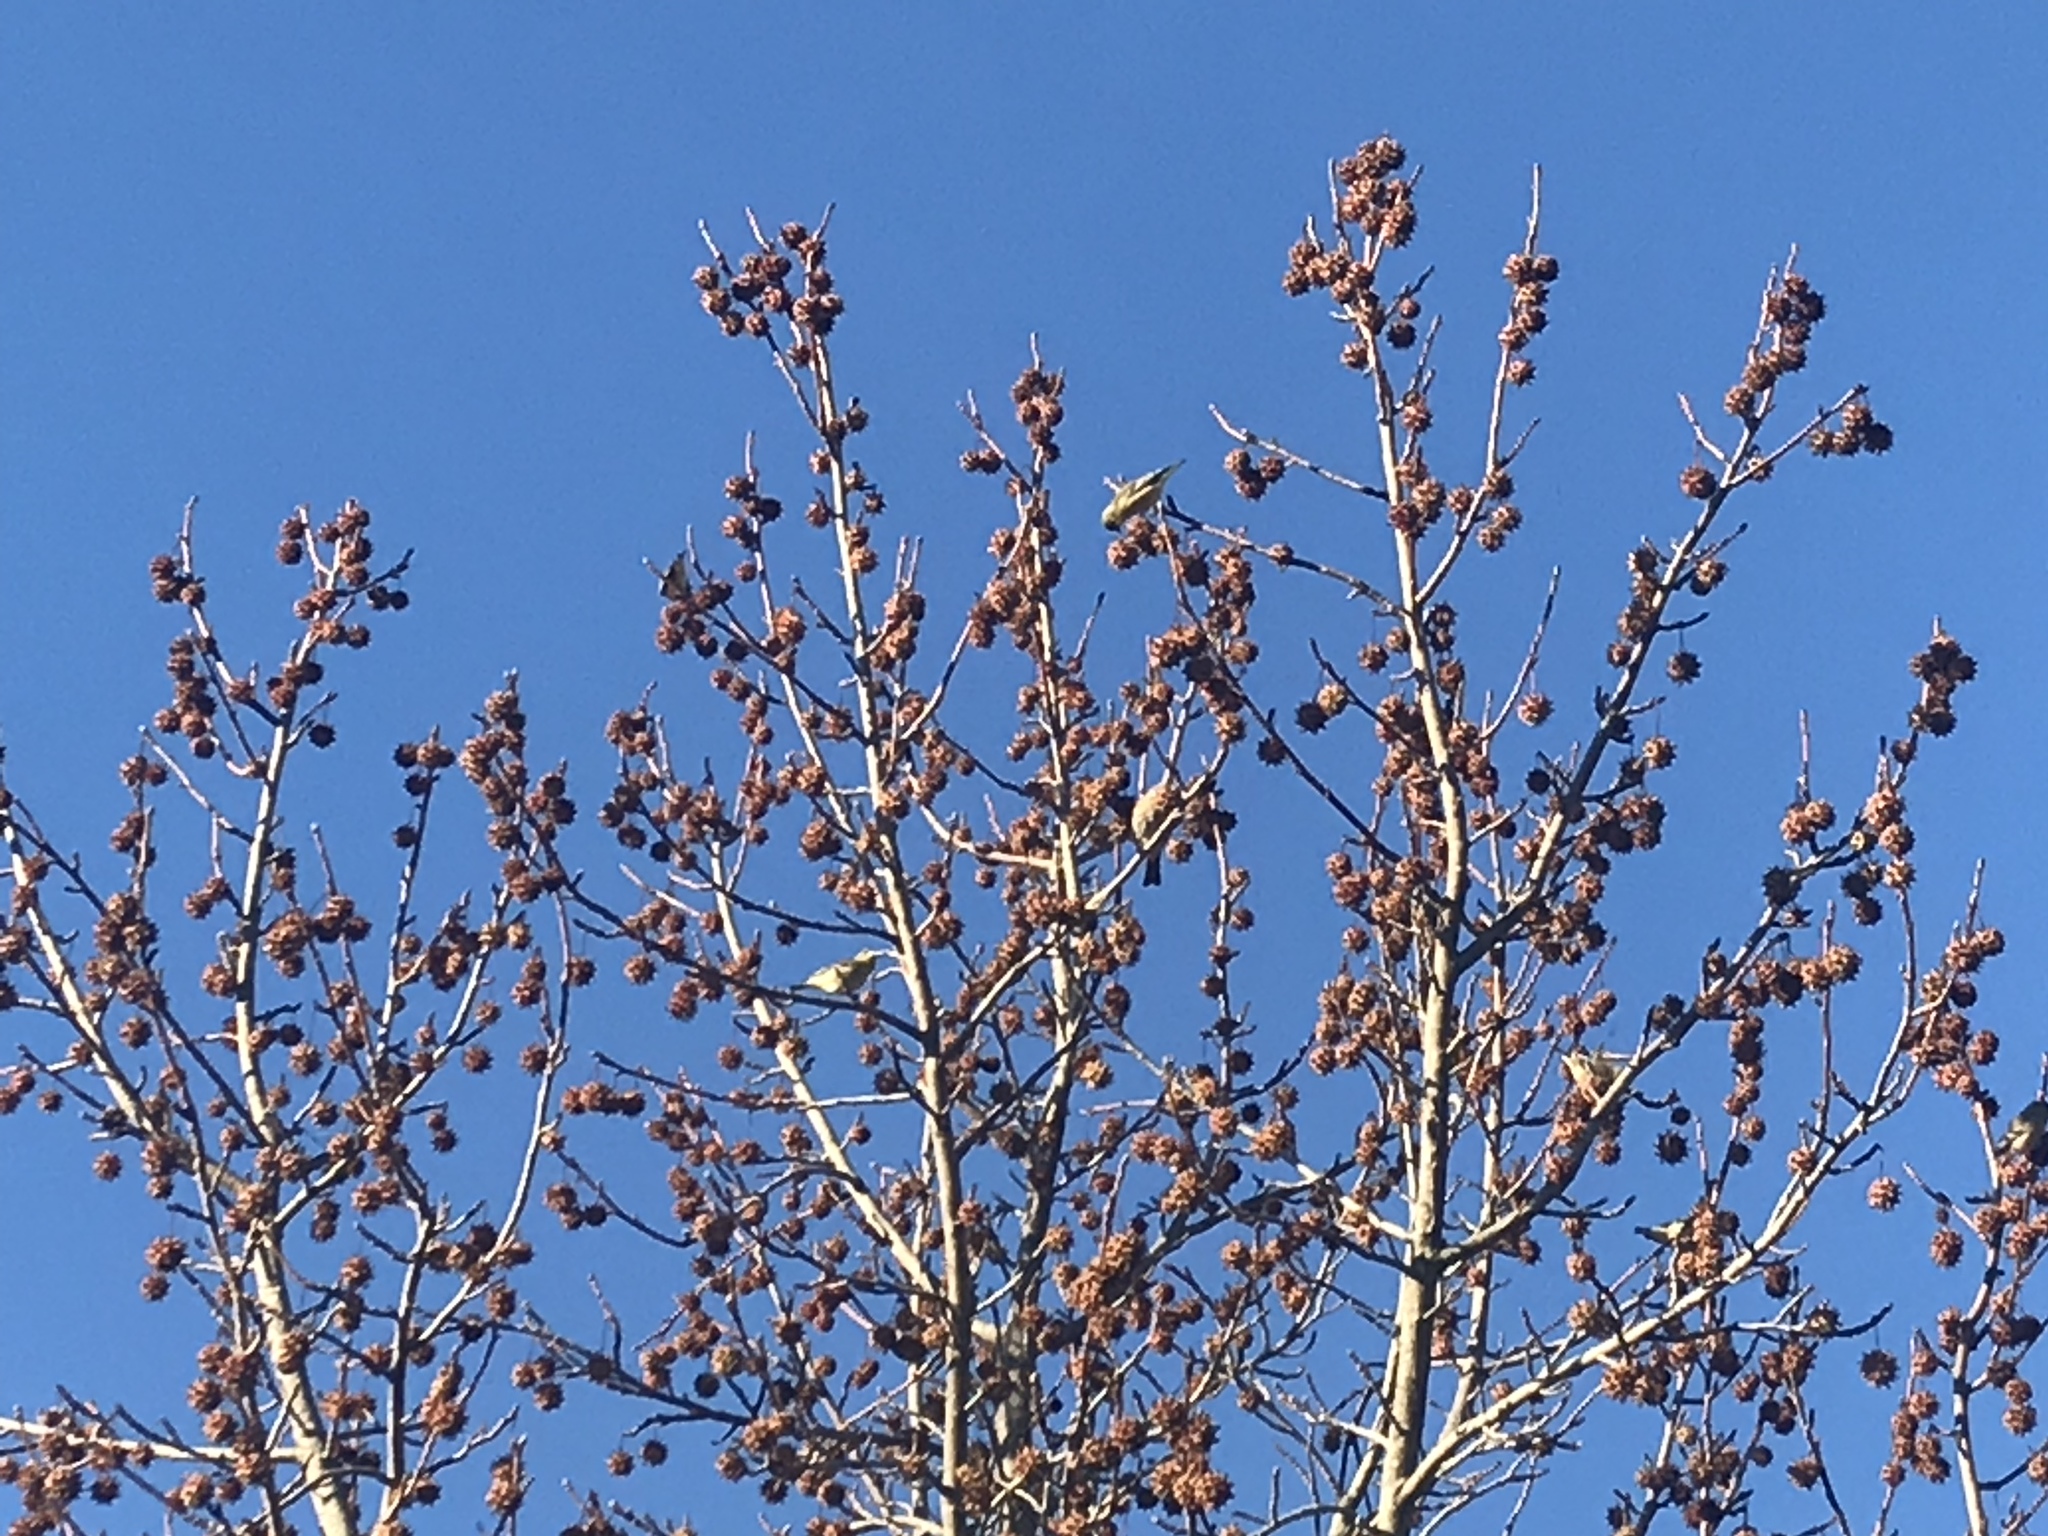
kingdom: Animalia
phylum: Chordata
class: Aves
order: Passeriformes
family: Fringillidae
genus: Spinus
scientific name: Spinus psaltria
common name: Lesser goldfinch
